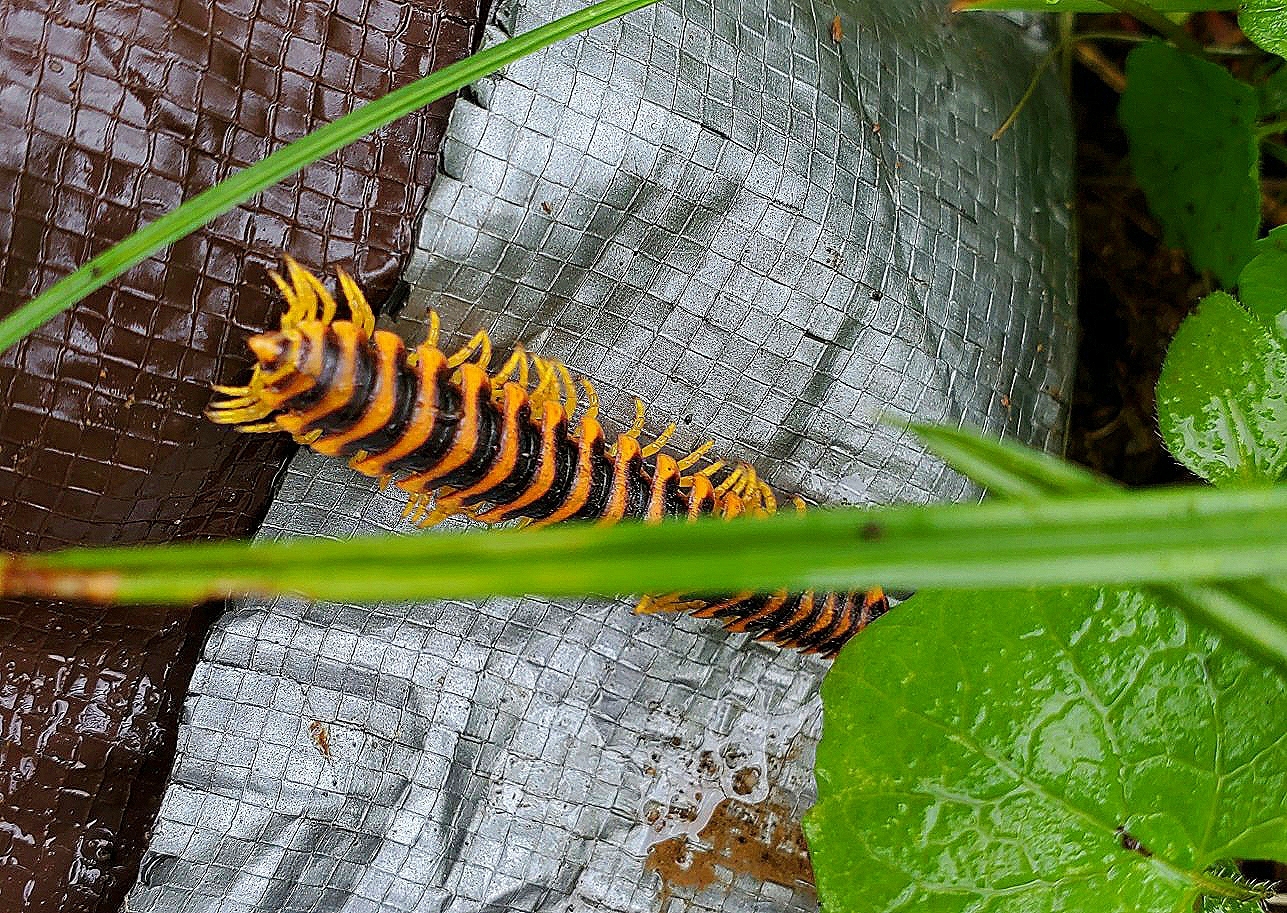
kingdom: Animalia
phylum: Arthropoda
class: Diplopoda
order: Polydesmida
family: Xystodesmidae
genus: Apheloria
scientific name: Apheloria virginiensis
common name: Black-and-gold flat millipede
